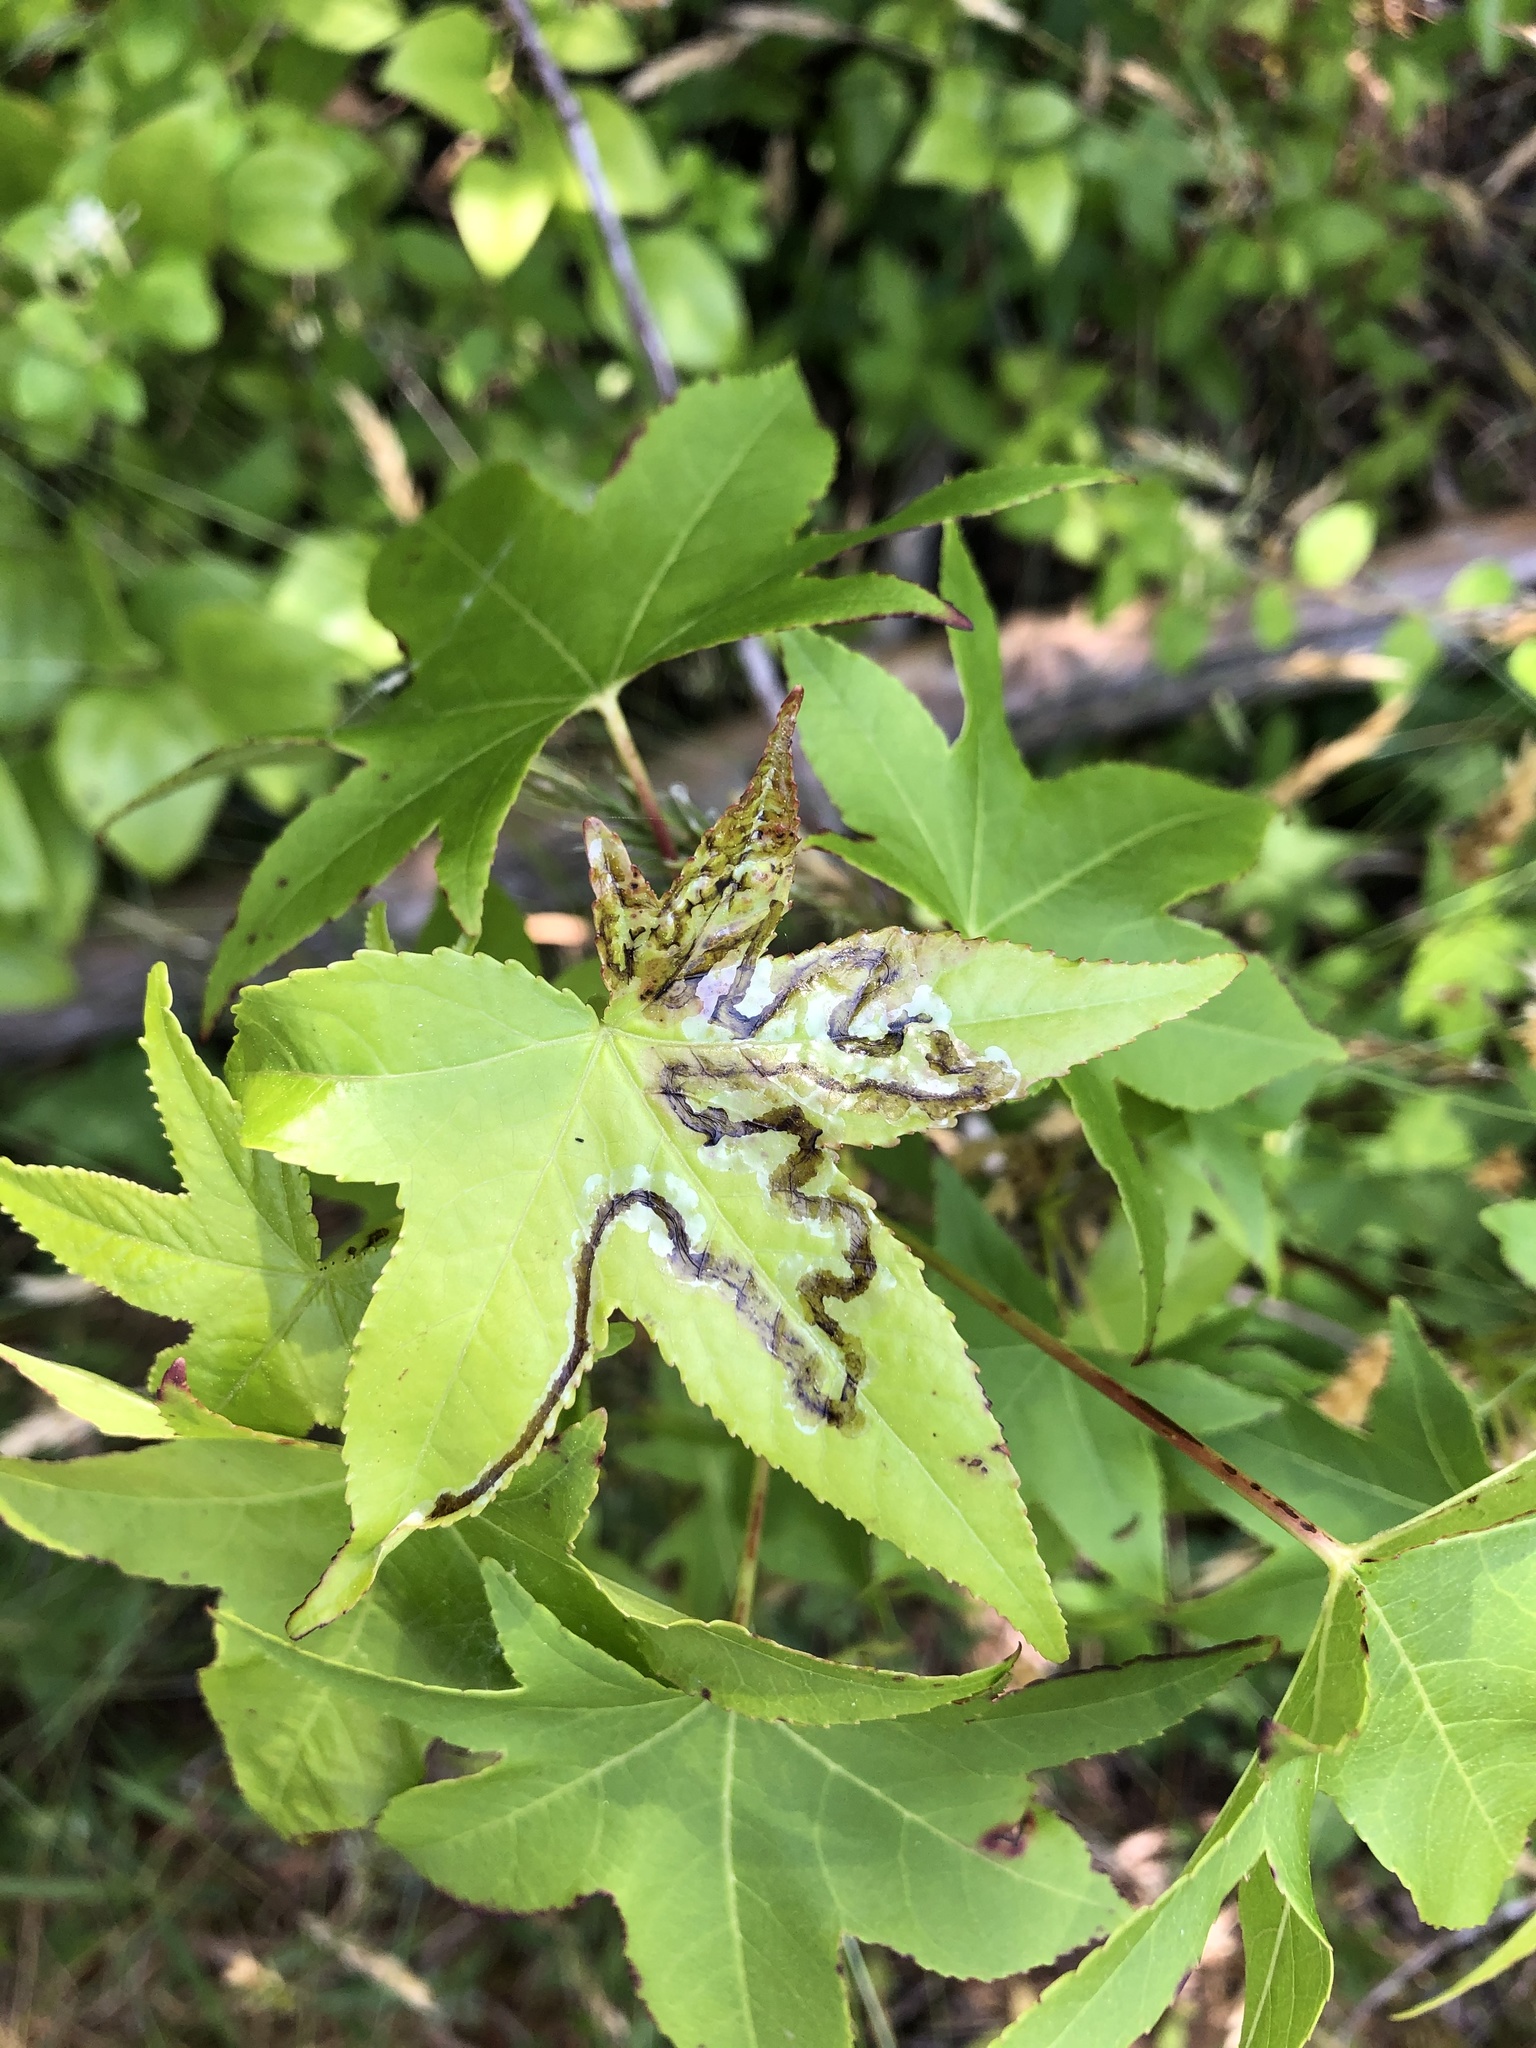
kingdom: Animalia
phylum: Arthropoda
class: Insecta
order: Lepidoptera
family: Gracillariidae
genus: Phyllocnistis
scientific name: Phyllocnistis liquidambarisella
